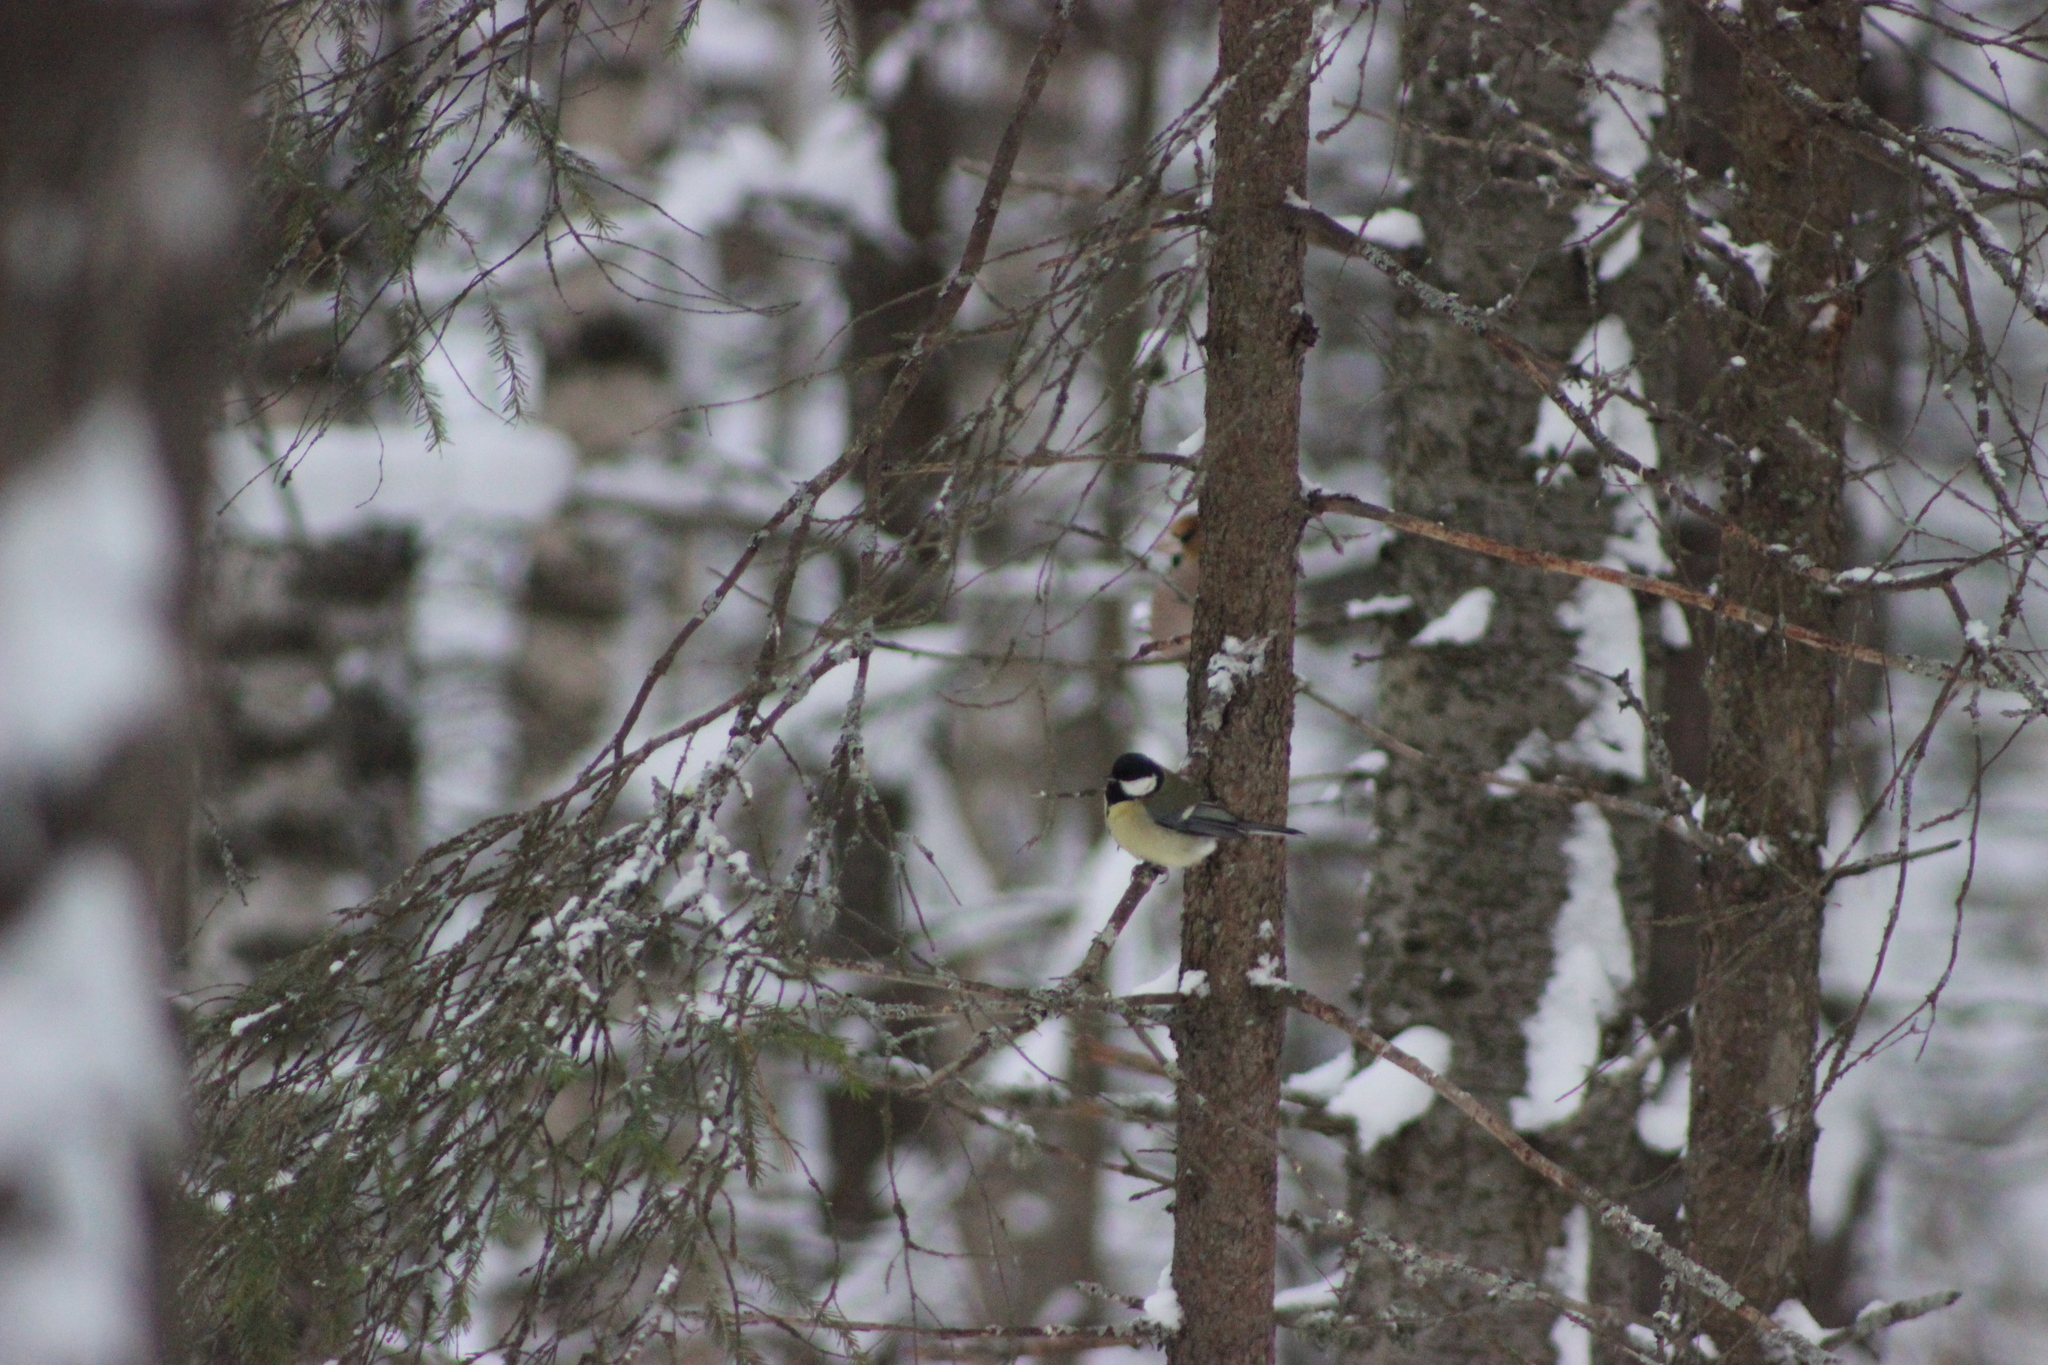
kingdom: Animalia
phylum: Chordata
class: Aves
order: Passeriformes
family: Paridae
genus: Parus
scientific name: Parus major
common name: Great tit
